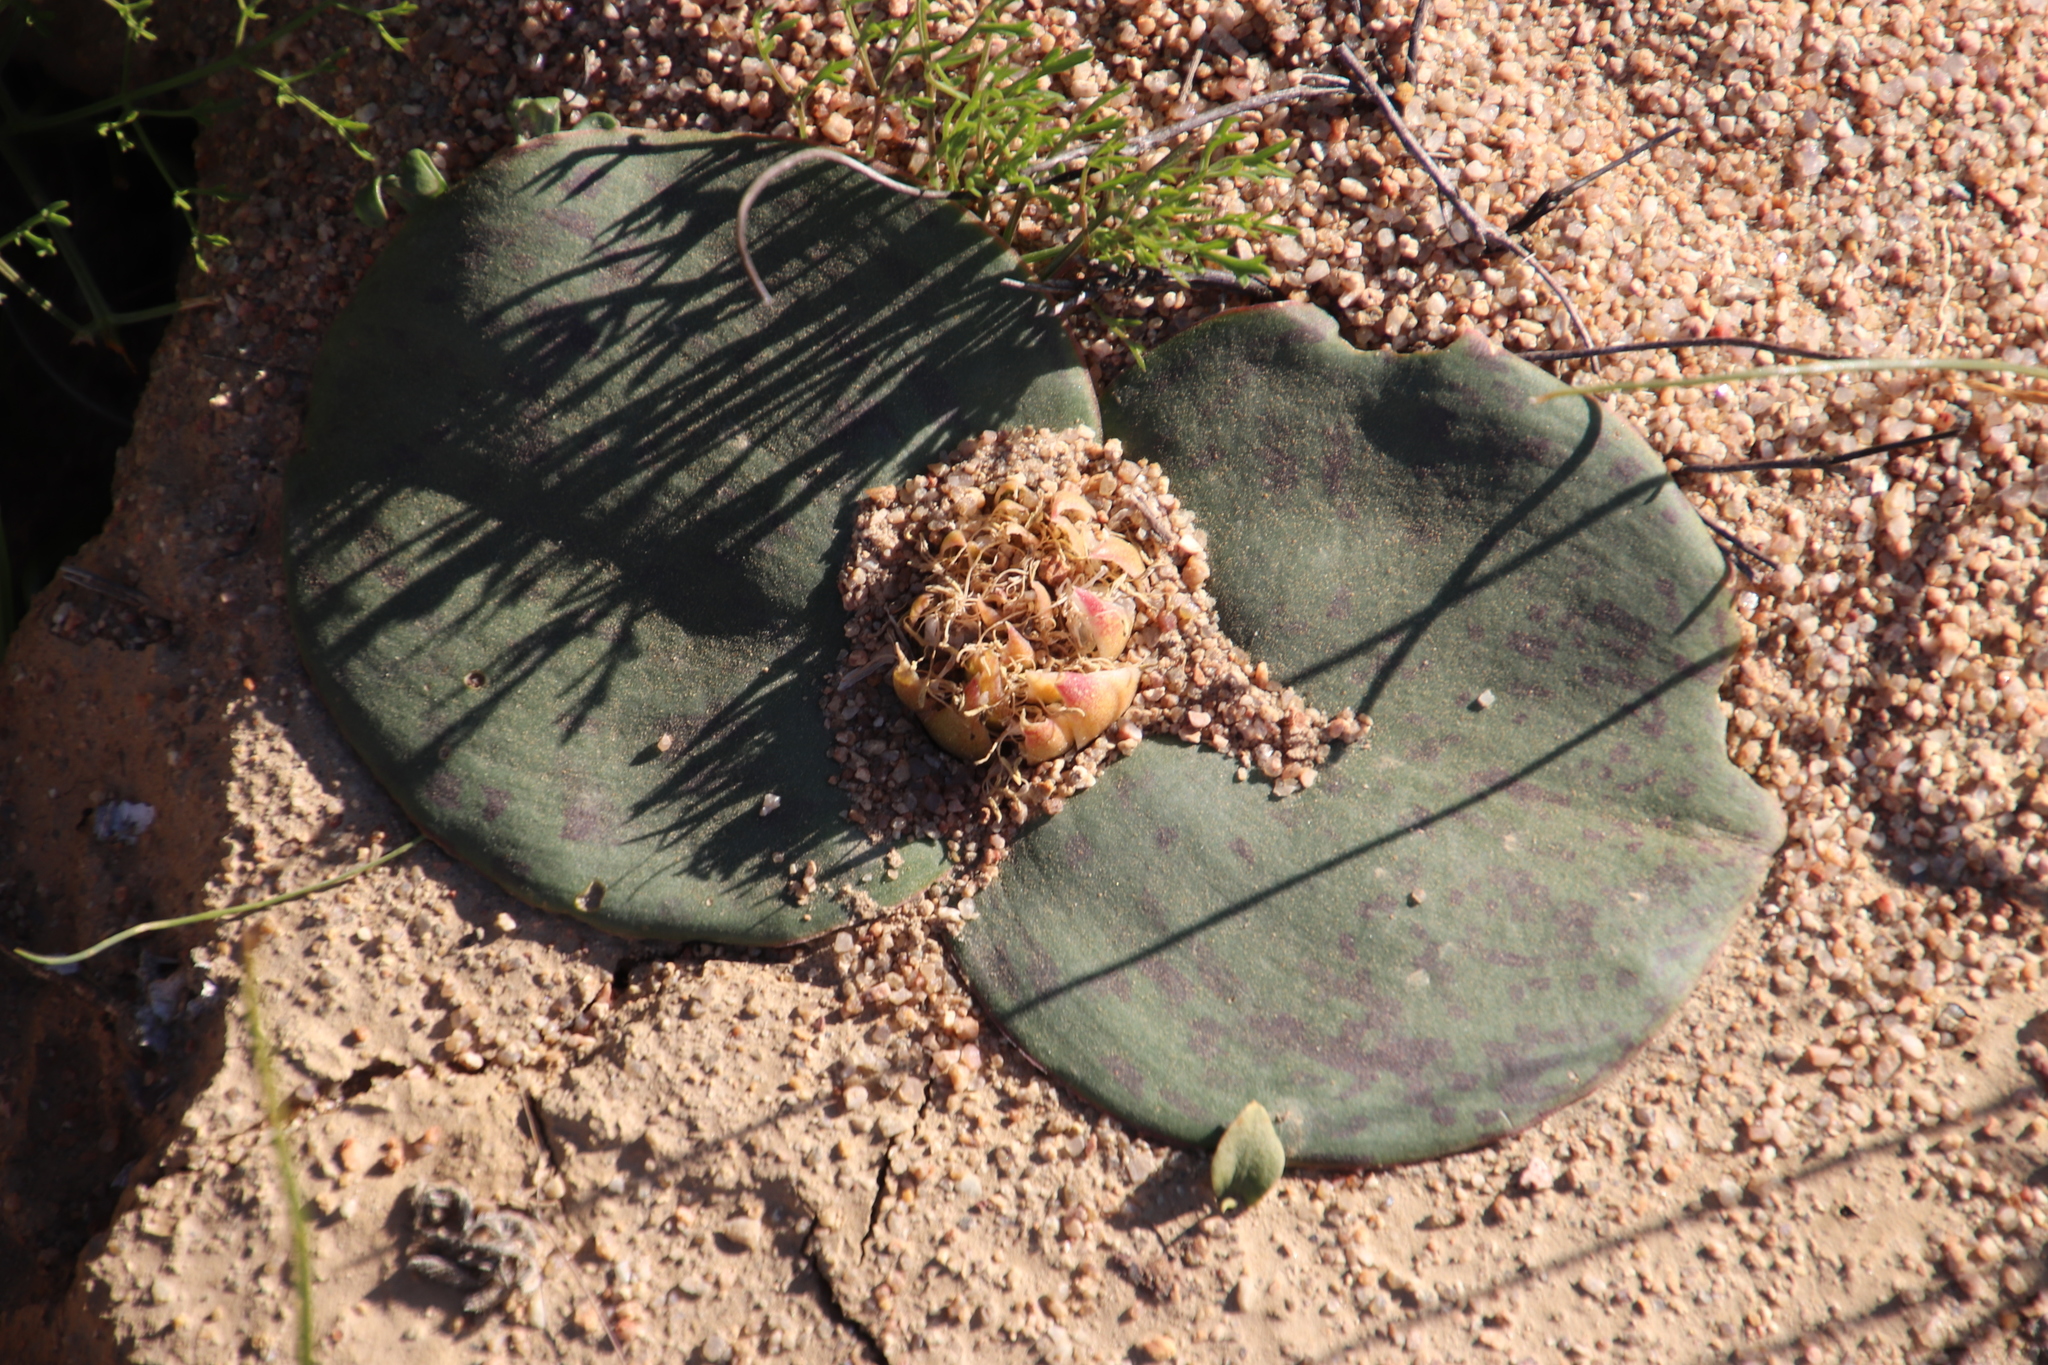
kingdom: Plantae
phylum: Tracheophyta
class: Liliopsida
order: Asparagales
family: Asparagaceae
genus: Massonia
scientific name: Massonia depressa
